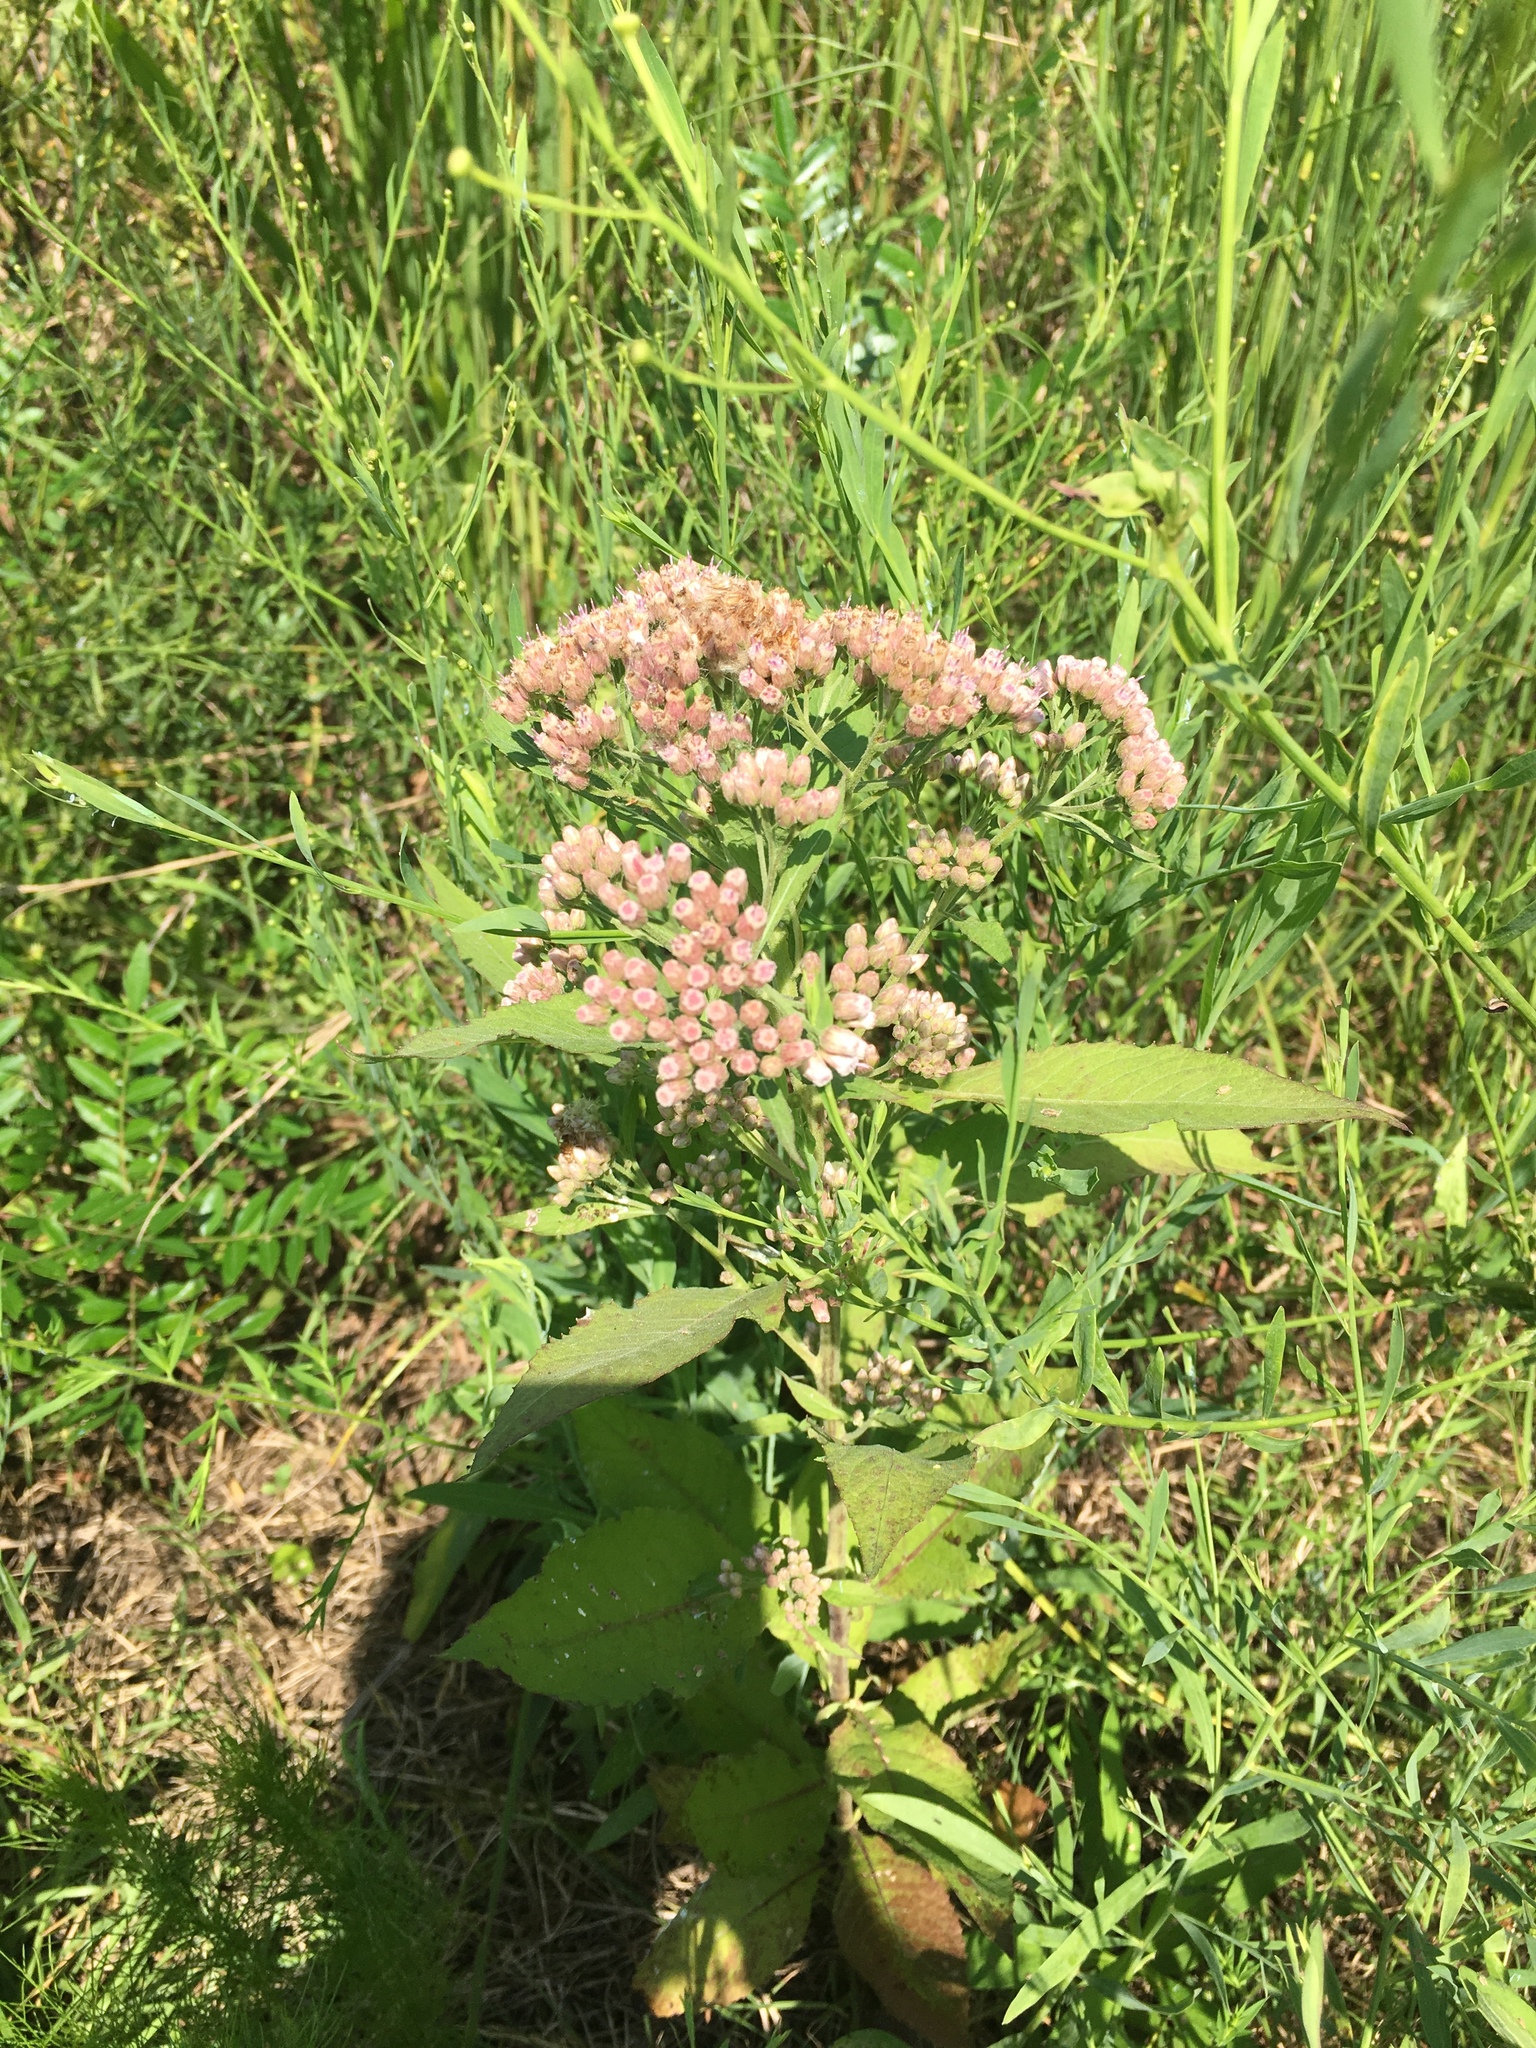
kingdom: Plantae
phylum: Tracheophyta
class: Magnoliopsida
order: Asterales
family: Asteraceae
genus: Pluchea
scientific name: Pluchea camphorata
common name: Camphor pluchea
